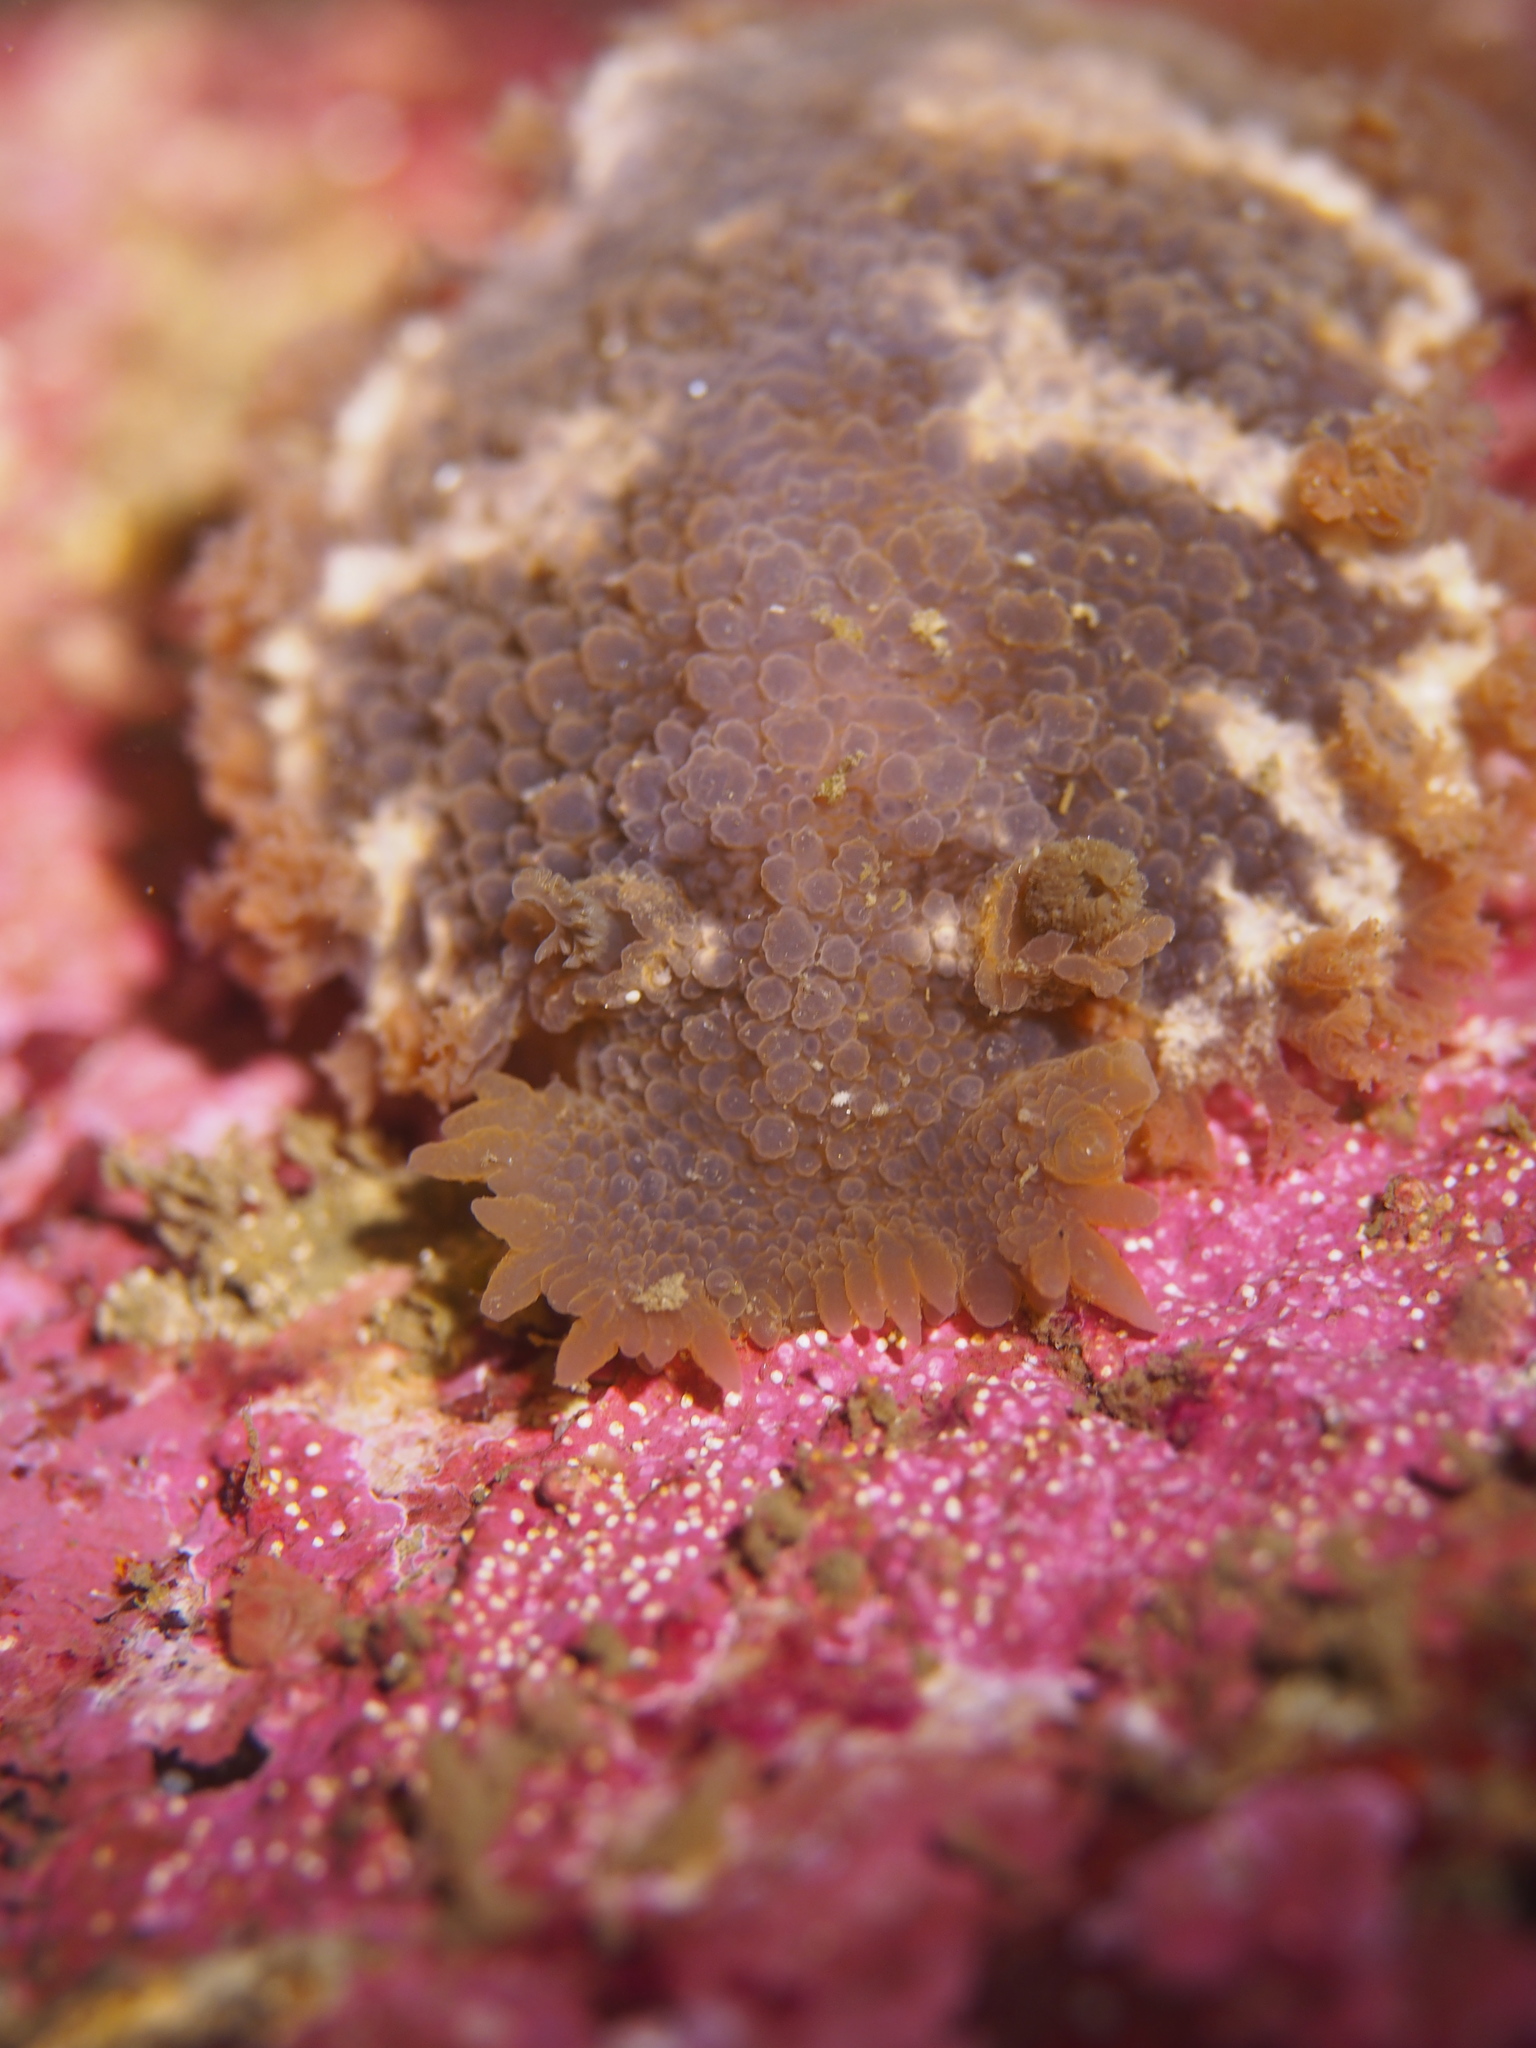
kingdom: Animalia
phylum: Mollusca
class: Gastropoda
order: Nudibranchia
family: Tritoniidae
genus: Tritonia
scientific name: Tritonia hombergii
